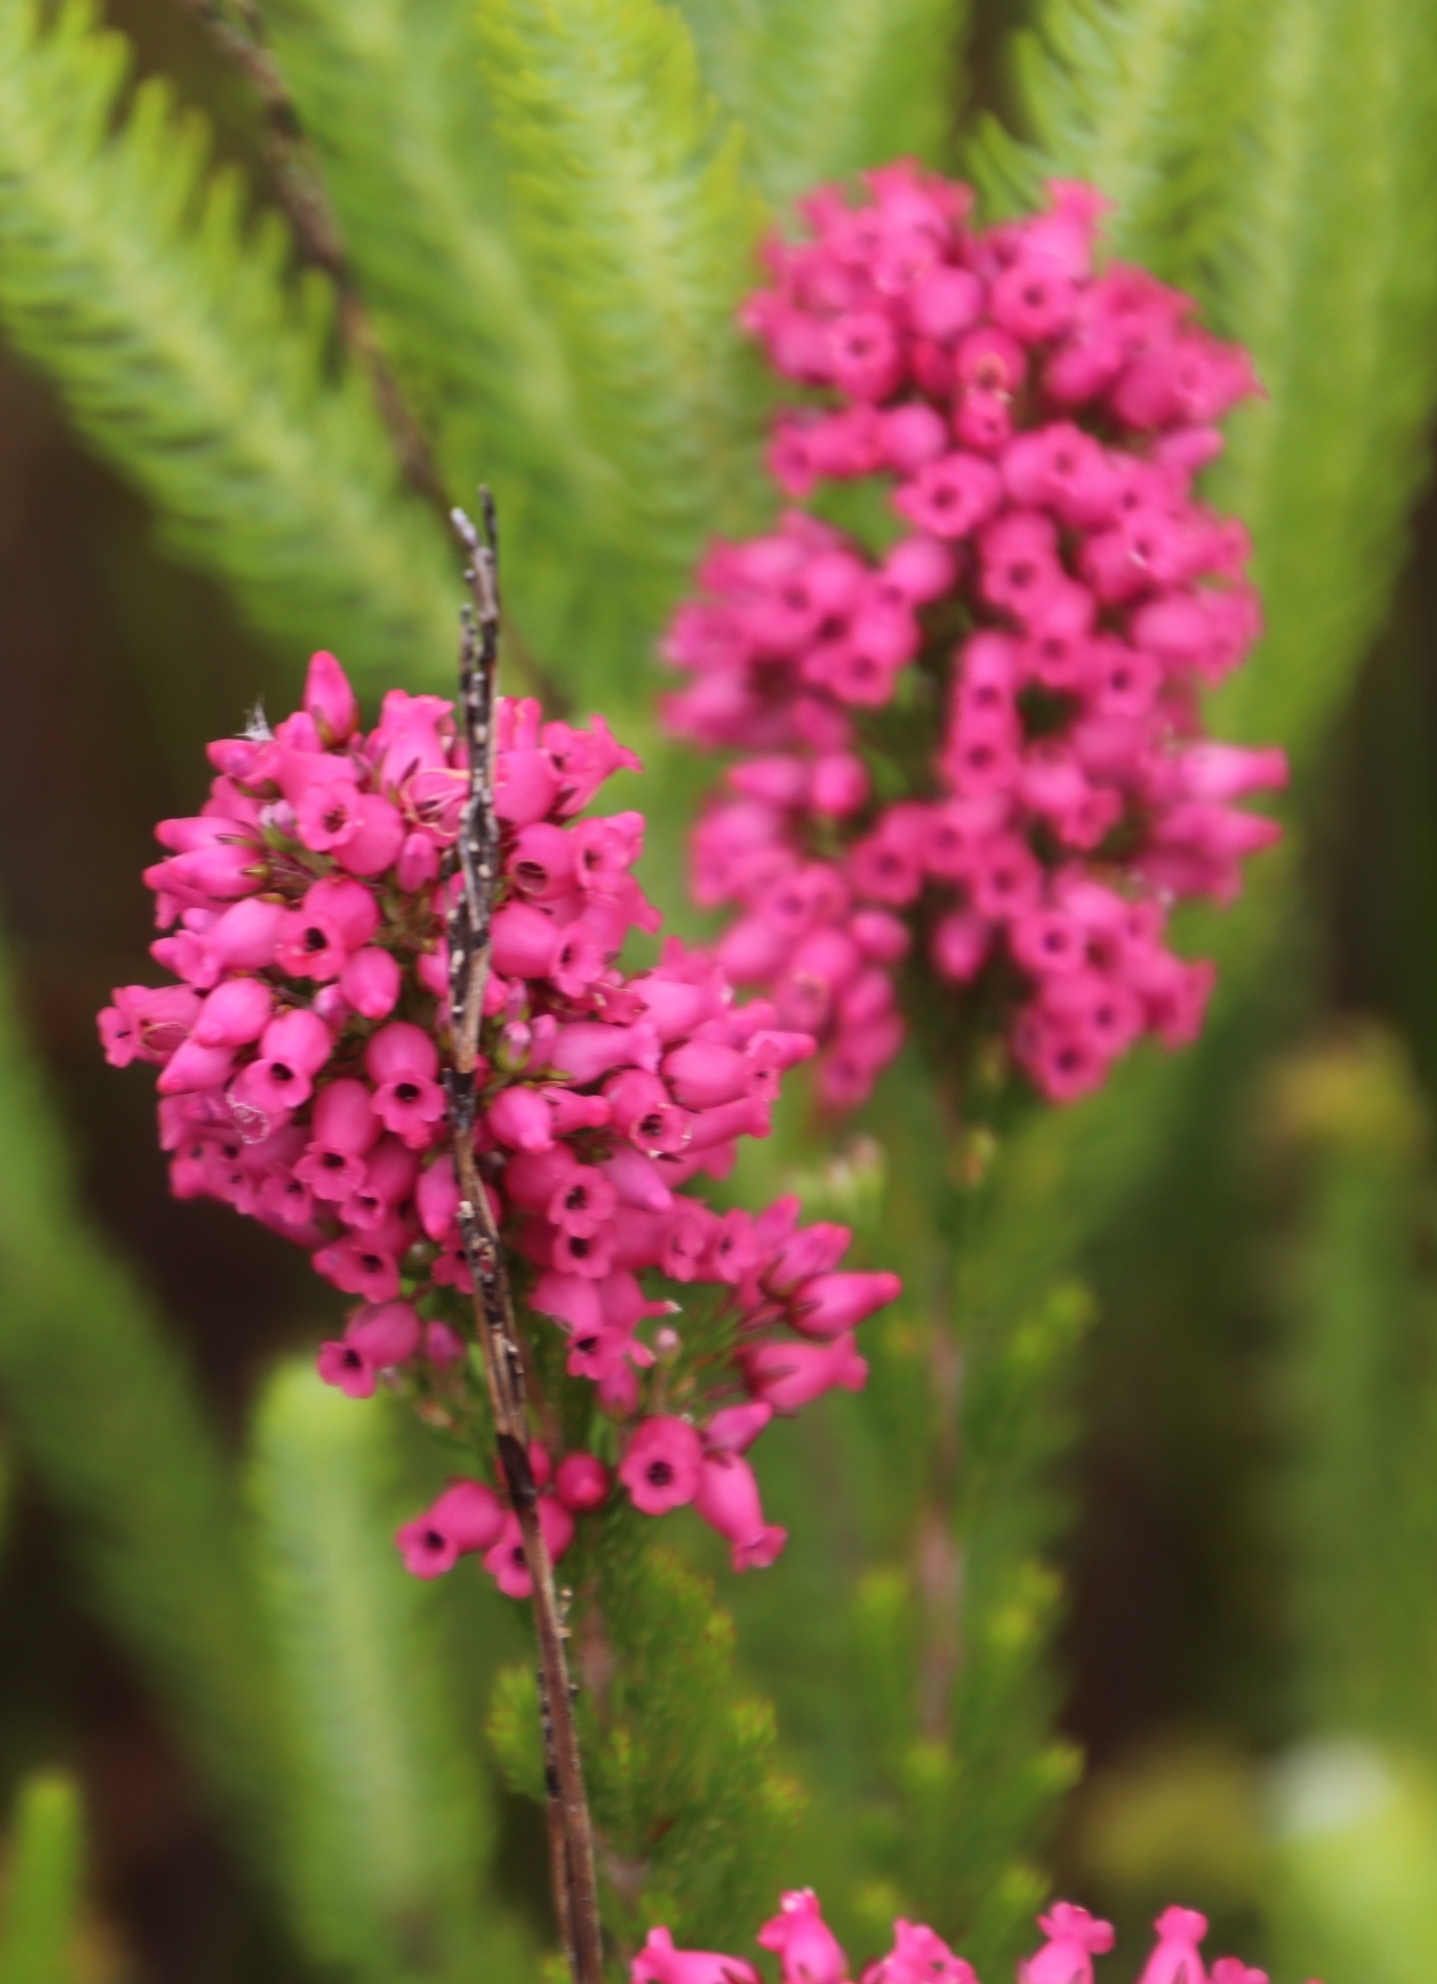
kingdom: Plantae
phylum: Tracheophyta
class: Magnoliopsida
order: Ericales
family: Ericaceae
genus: Erica
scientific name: Erica tenella
